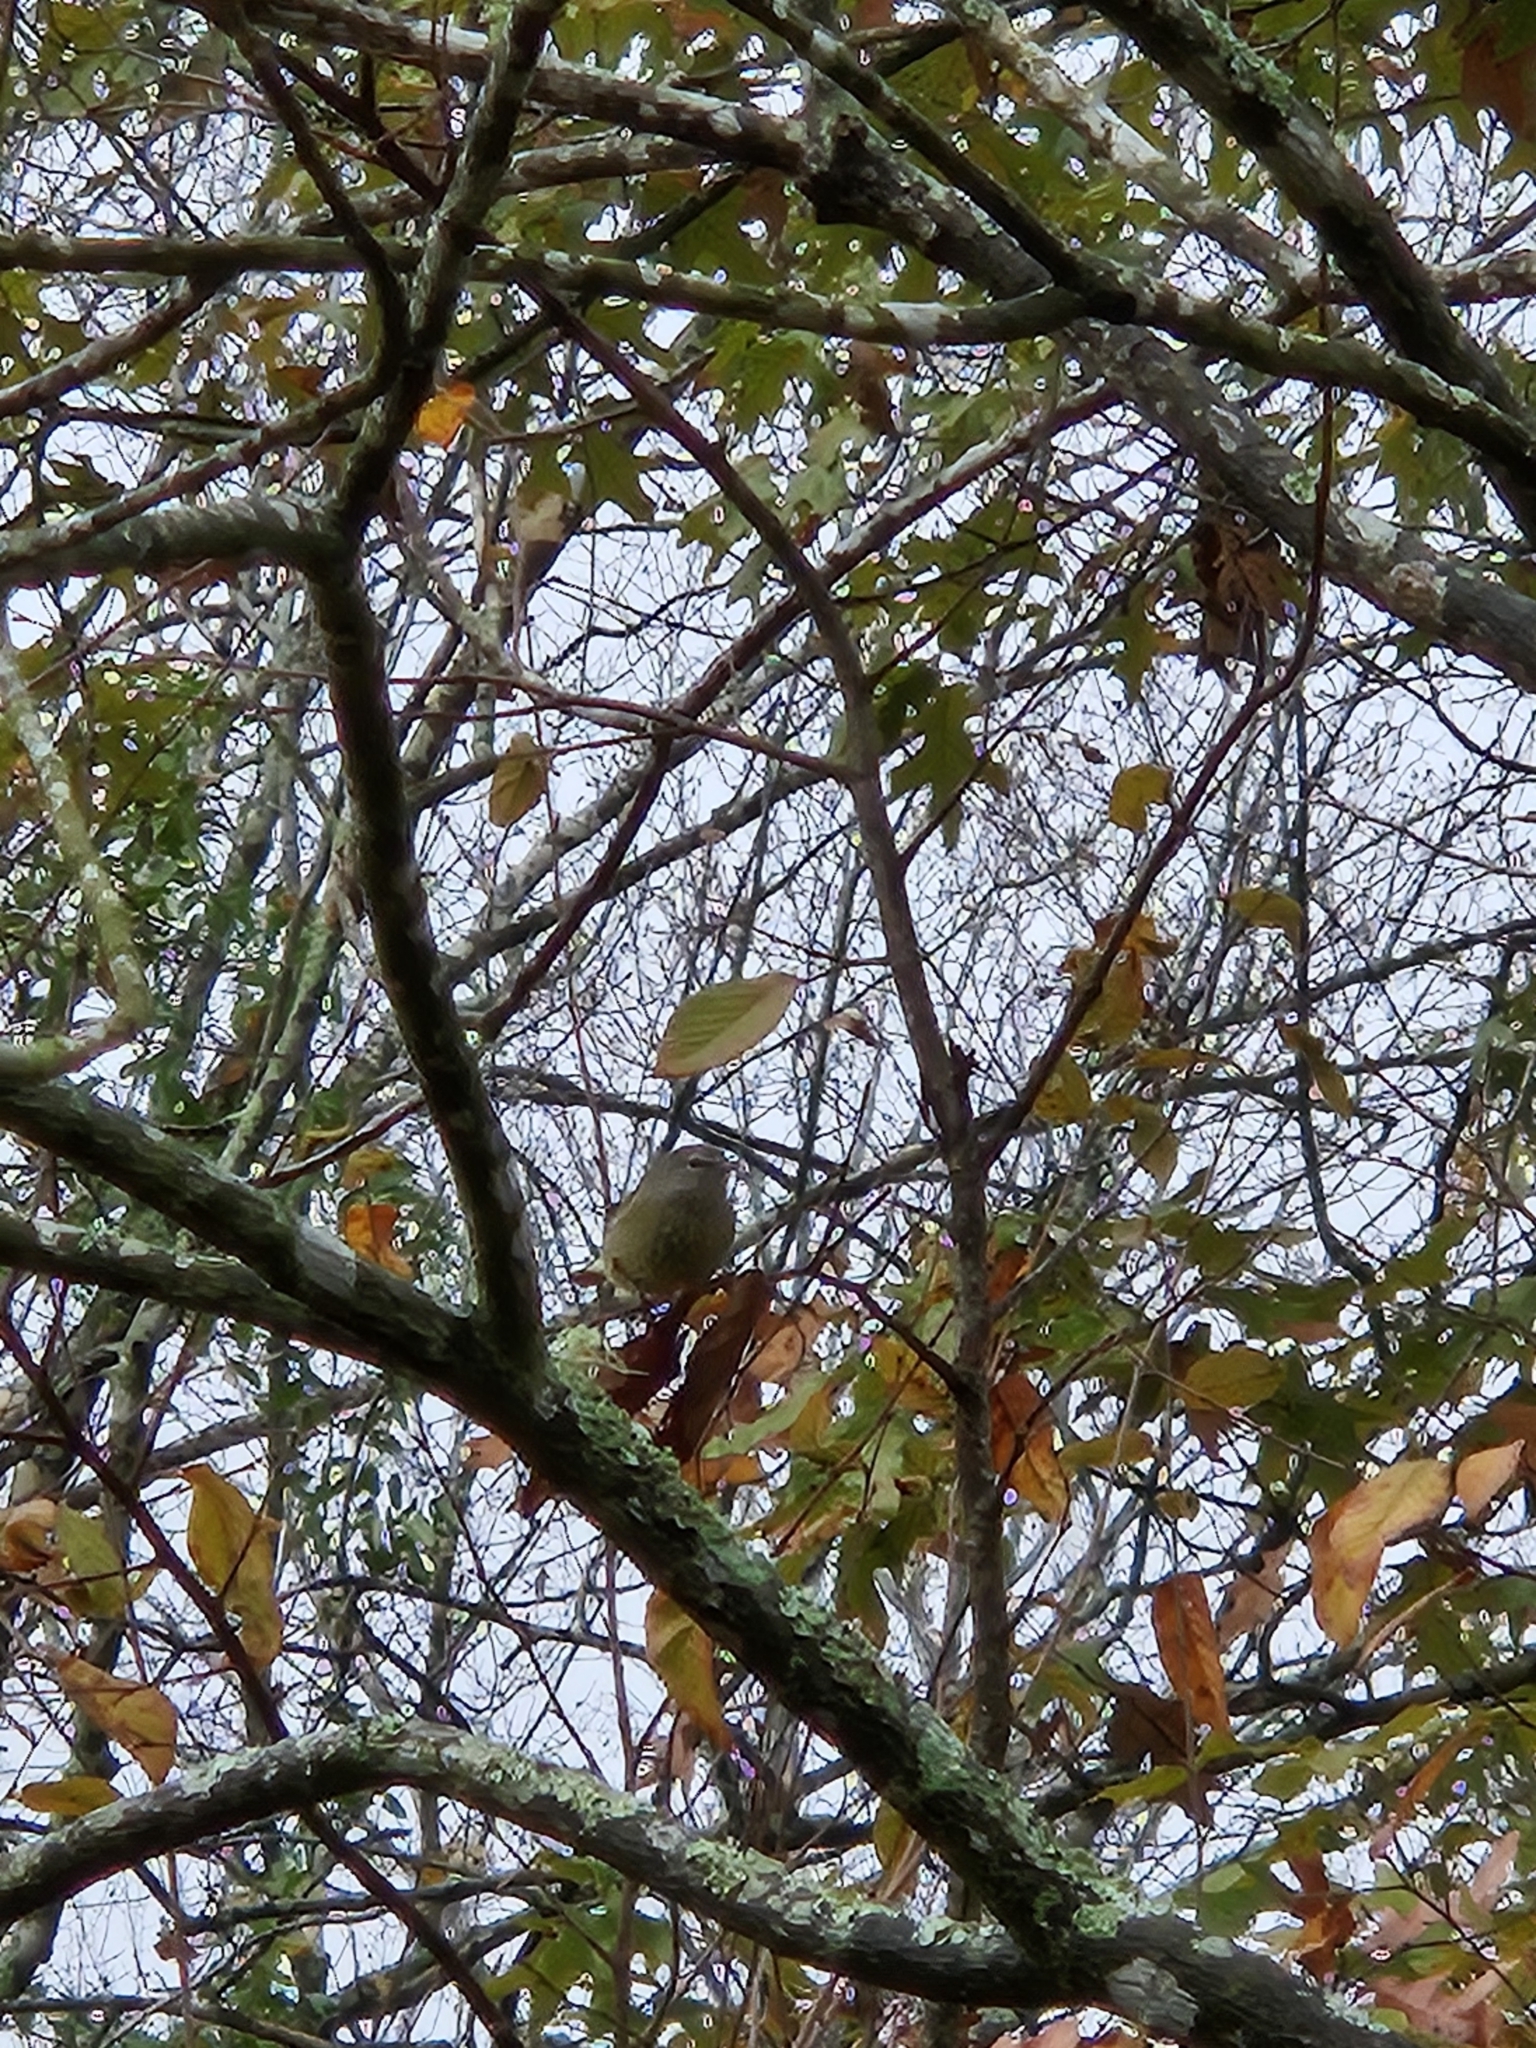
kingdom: Animalia
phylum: Chordata
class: Aves
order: Passeriformes
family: Parulidae
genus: Leiothlypis
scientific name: Leiothlypis celata
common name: Orange-crowned warbler
